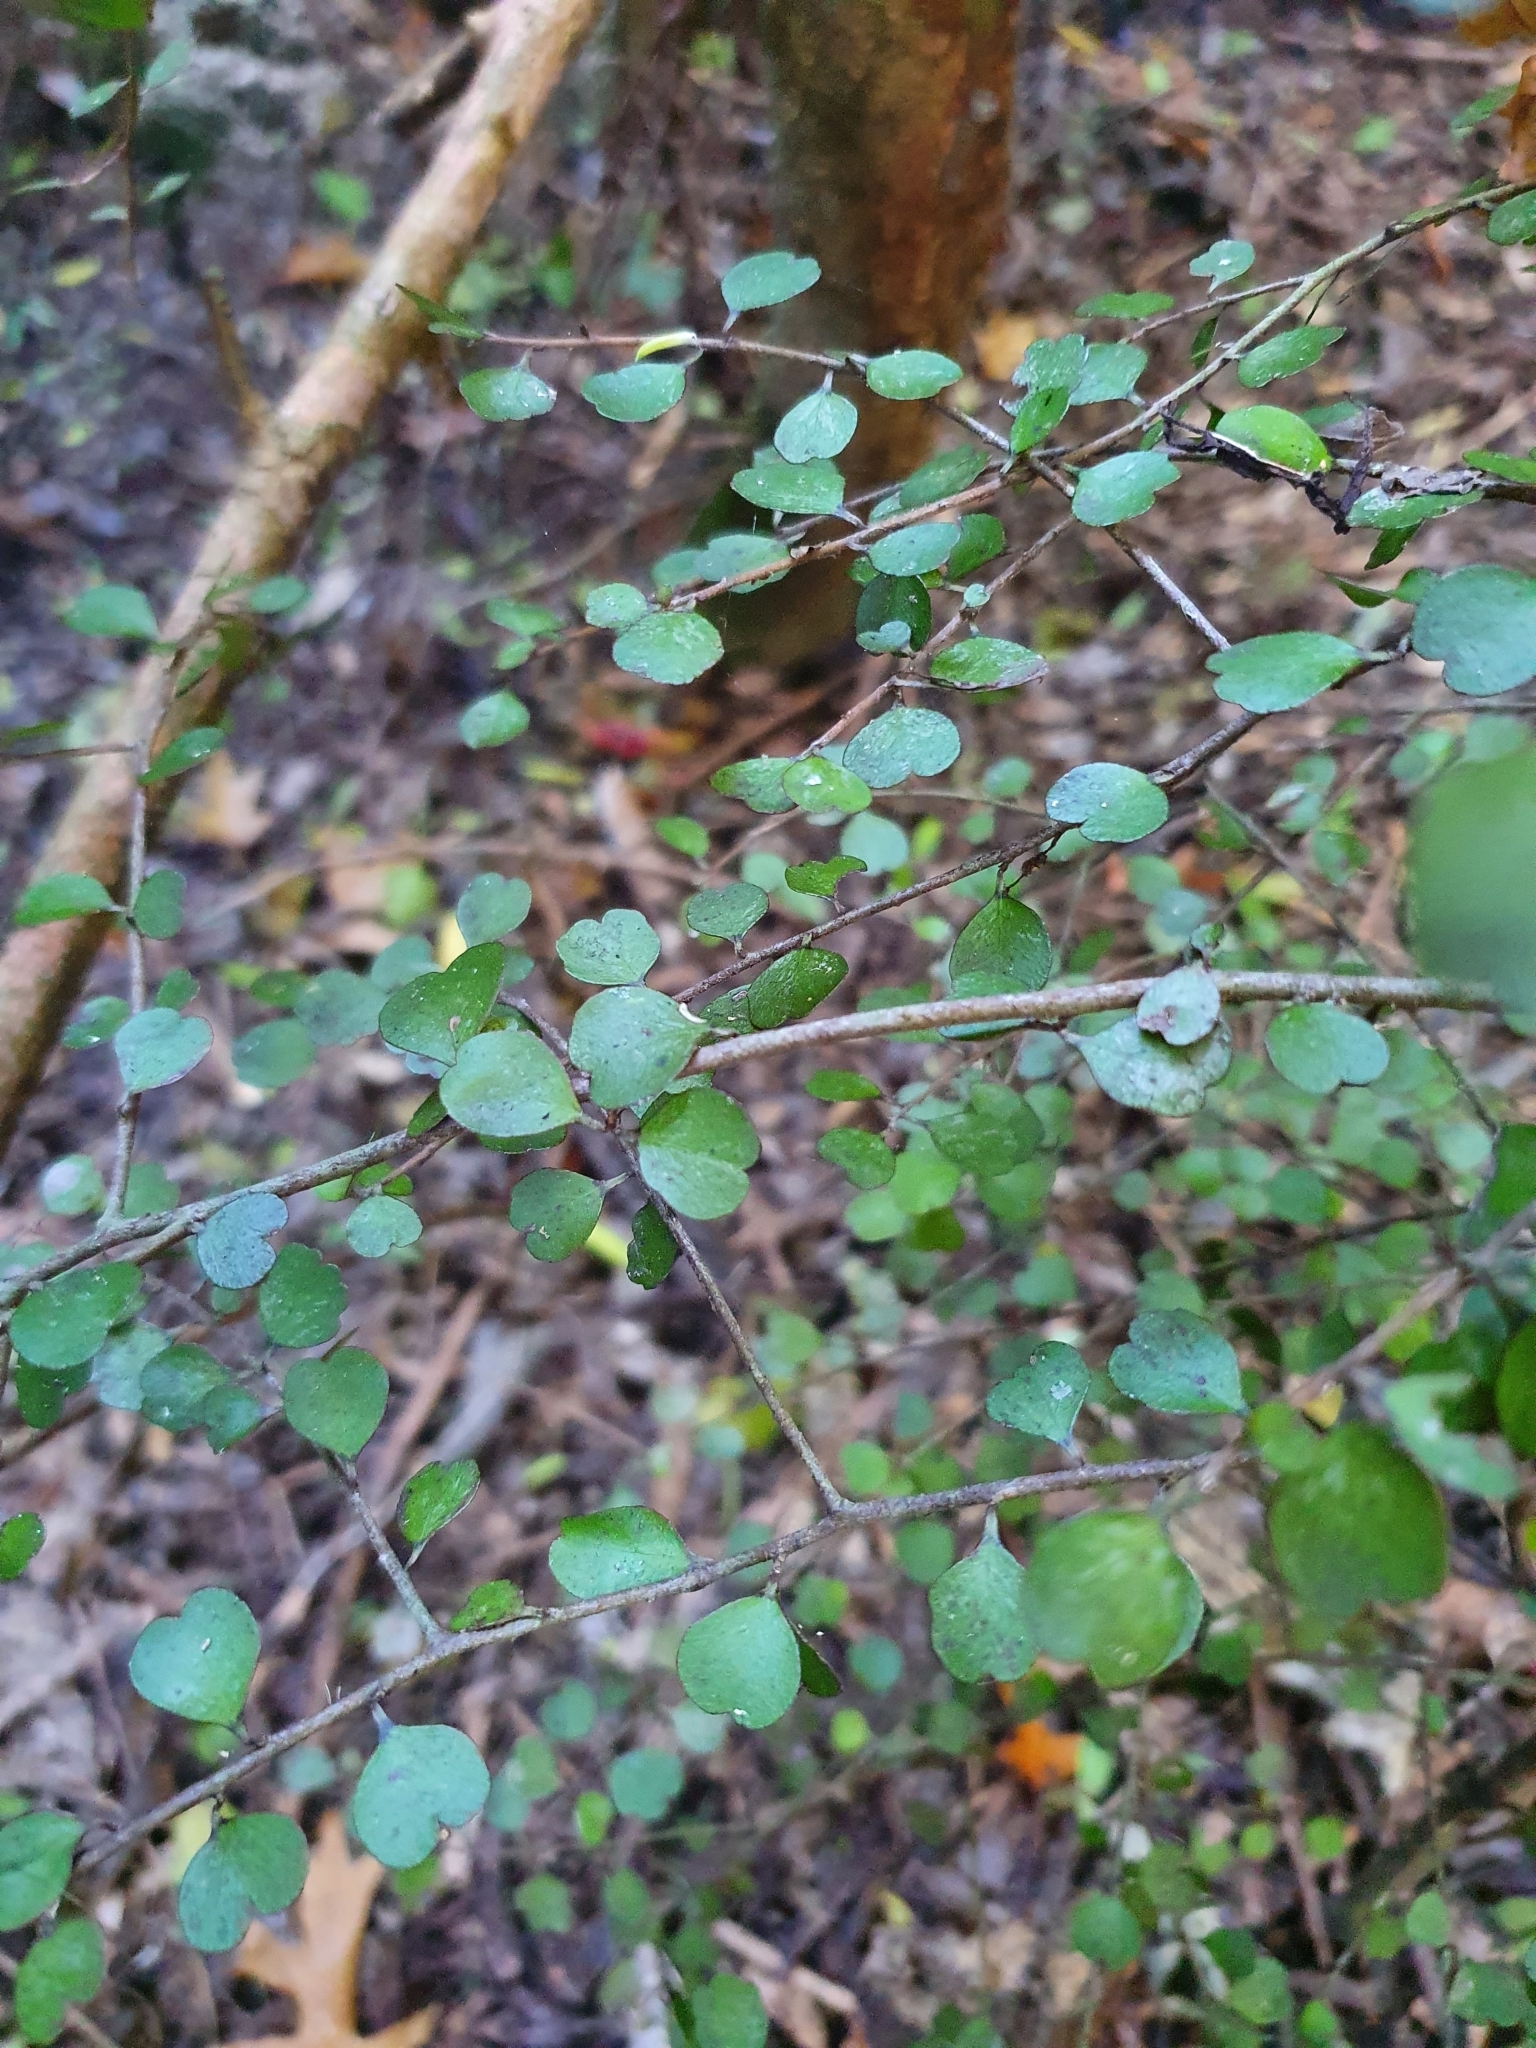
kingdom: Plantae
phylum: Tracheophyta
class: Magnoliopsida
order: Ericales
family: Primulaceae
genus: Myrsine
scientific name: Myrsine divaricata
